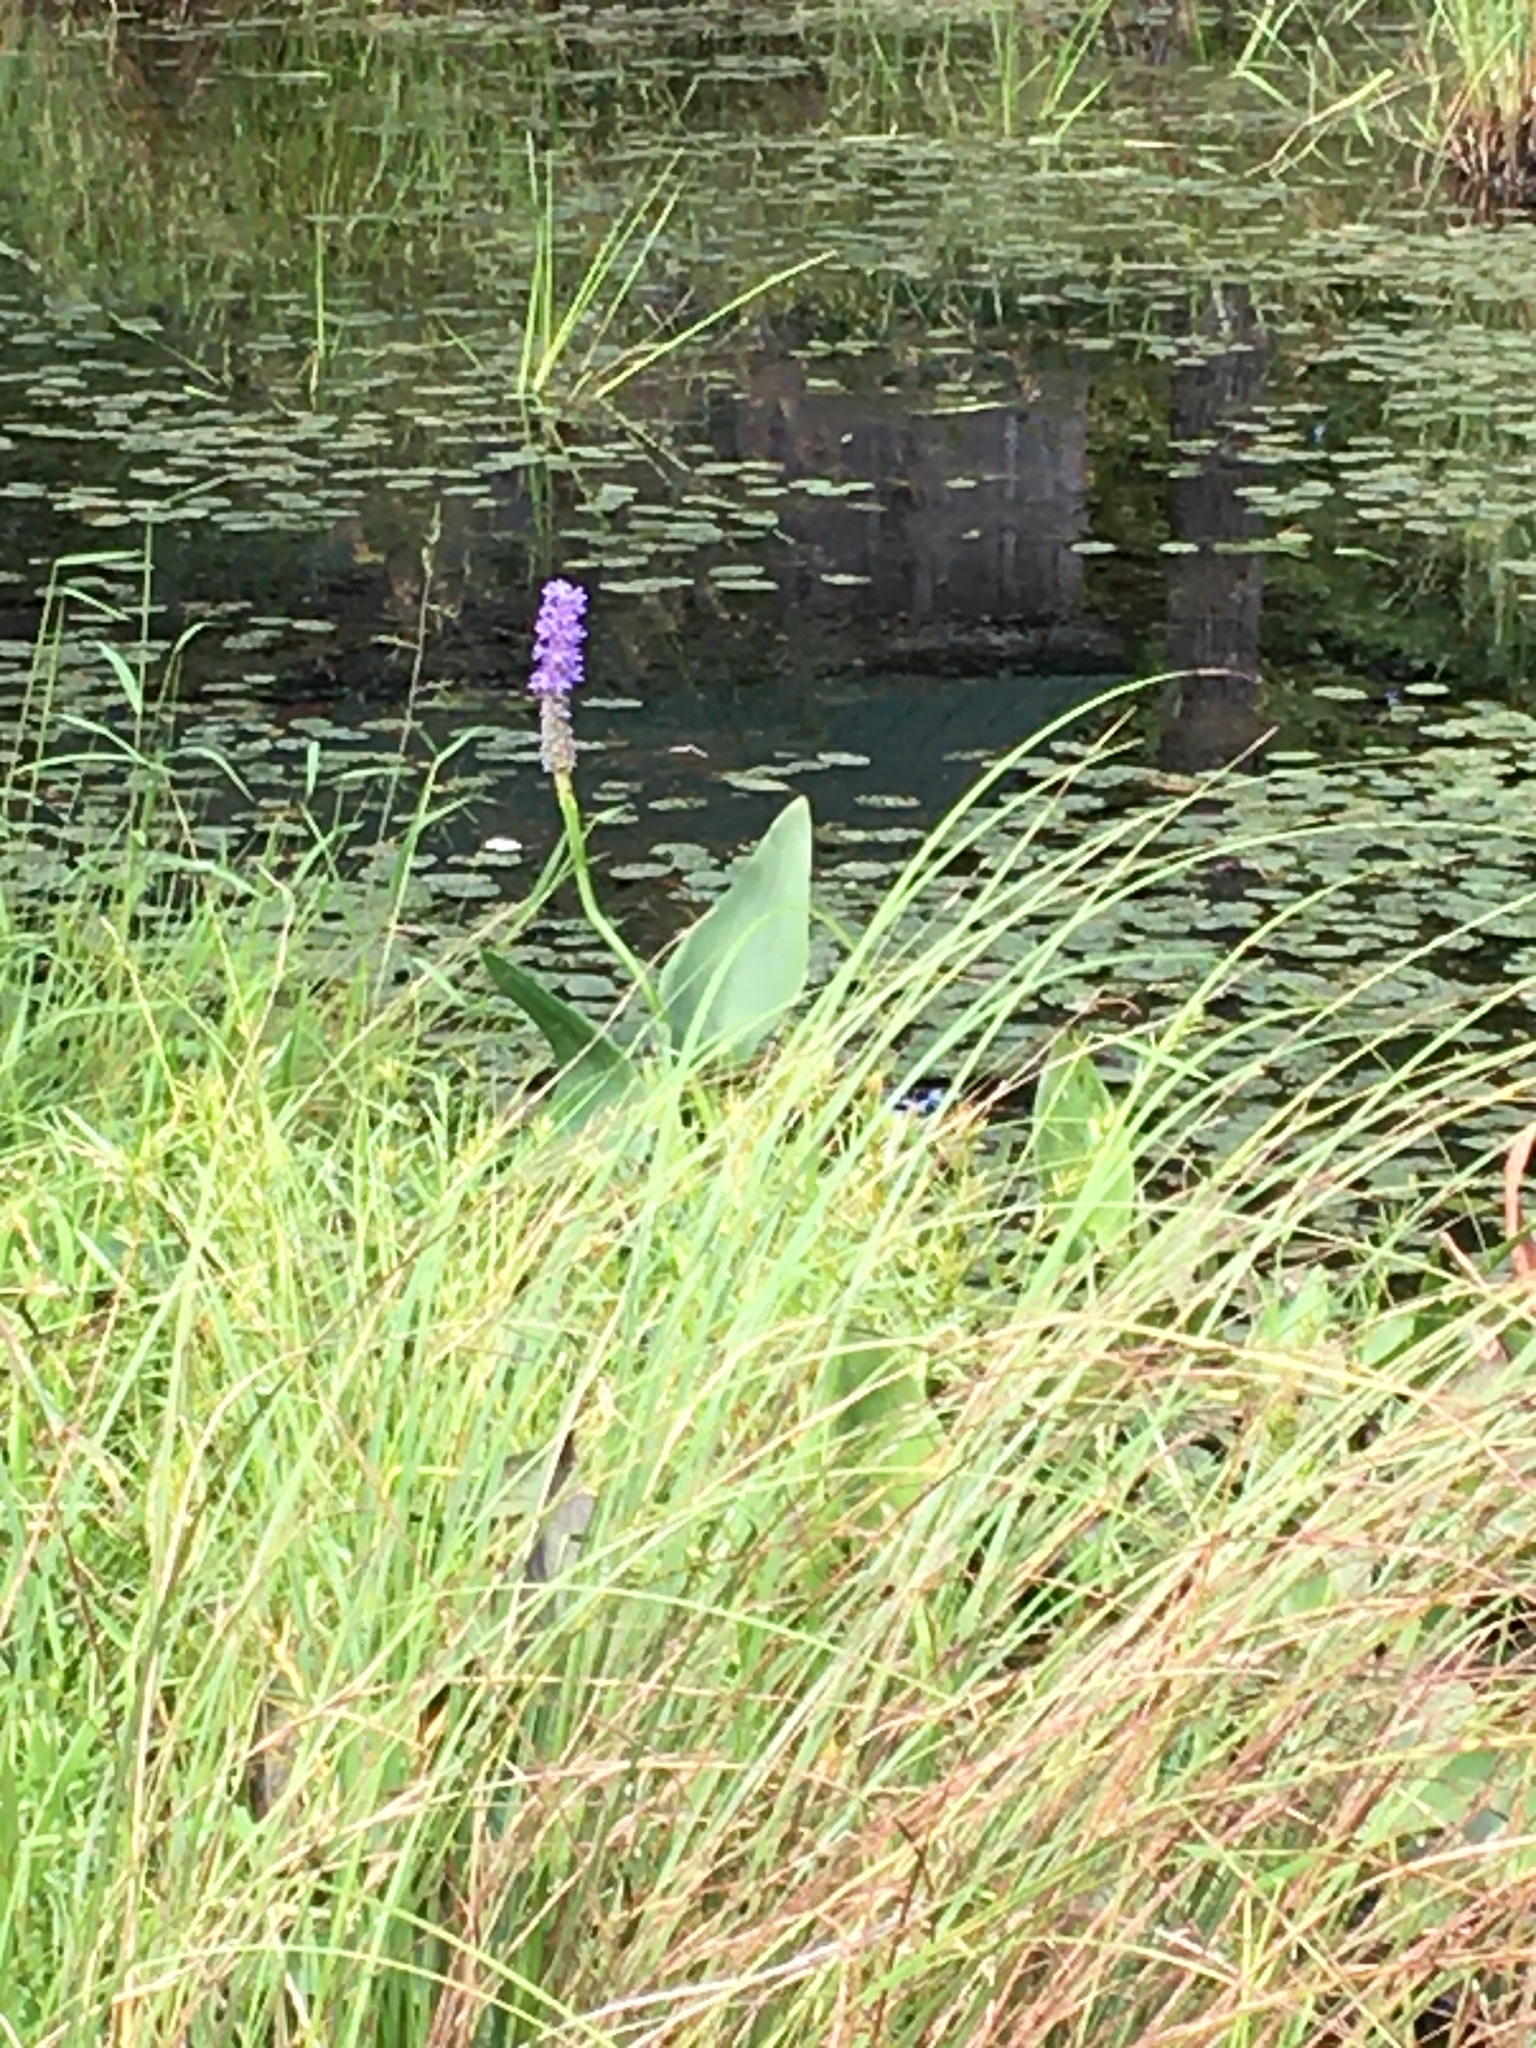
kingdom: Plantae
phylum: Tracheophyta
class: Liliopsida
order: Commelinales
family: Pontederiaceae
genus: Pontederia
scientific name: Pontederia cordata
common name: Pickerelweed
